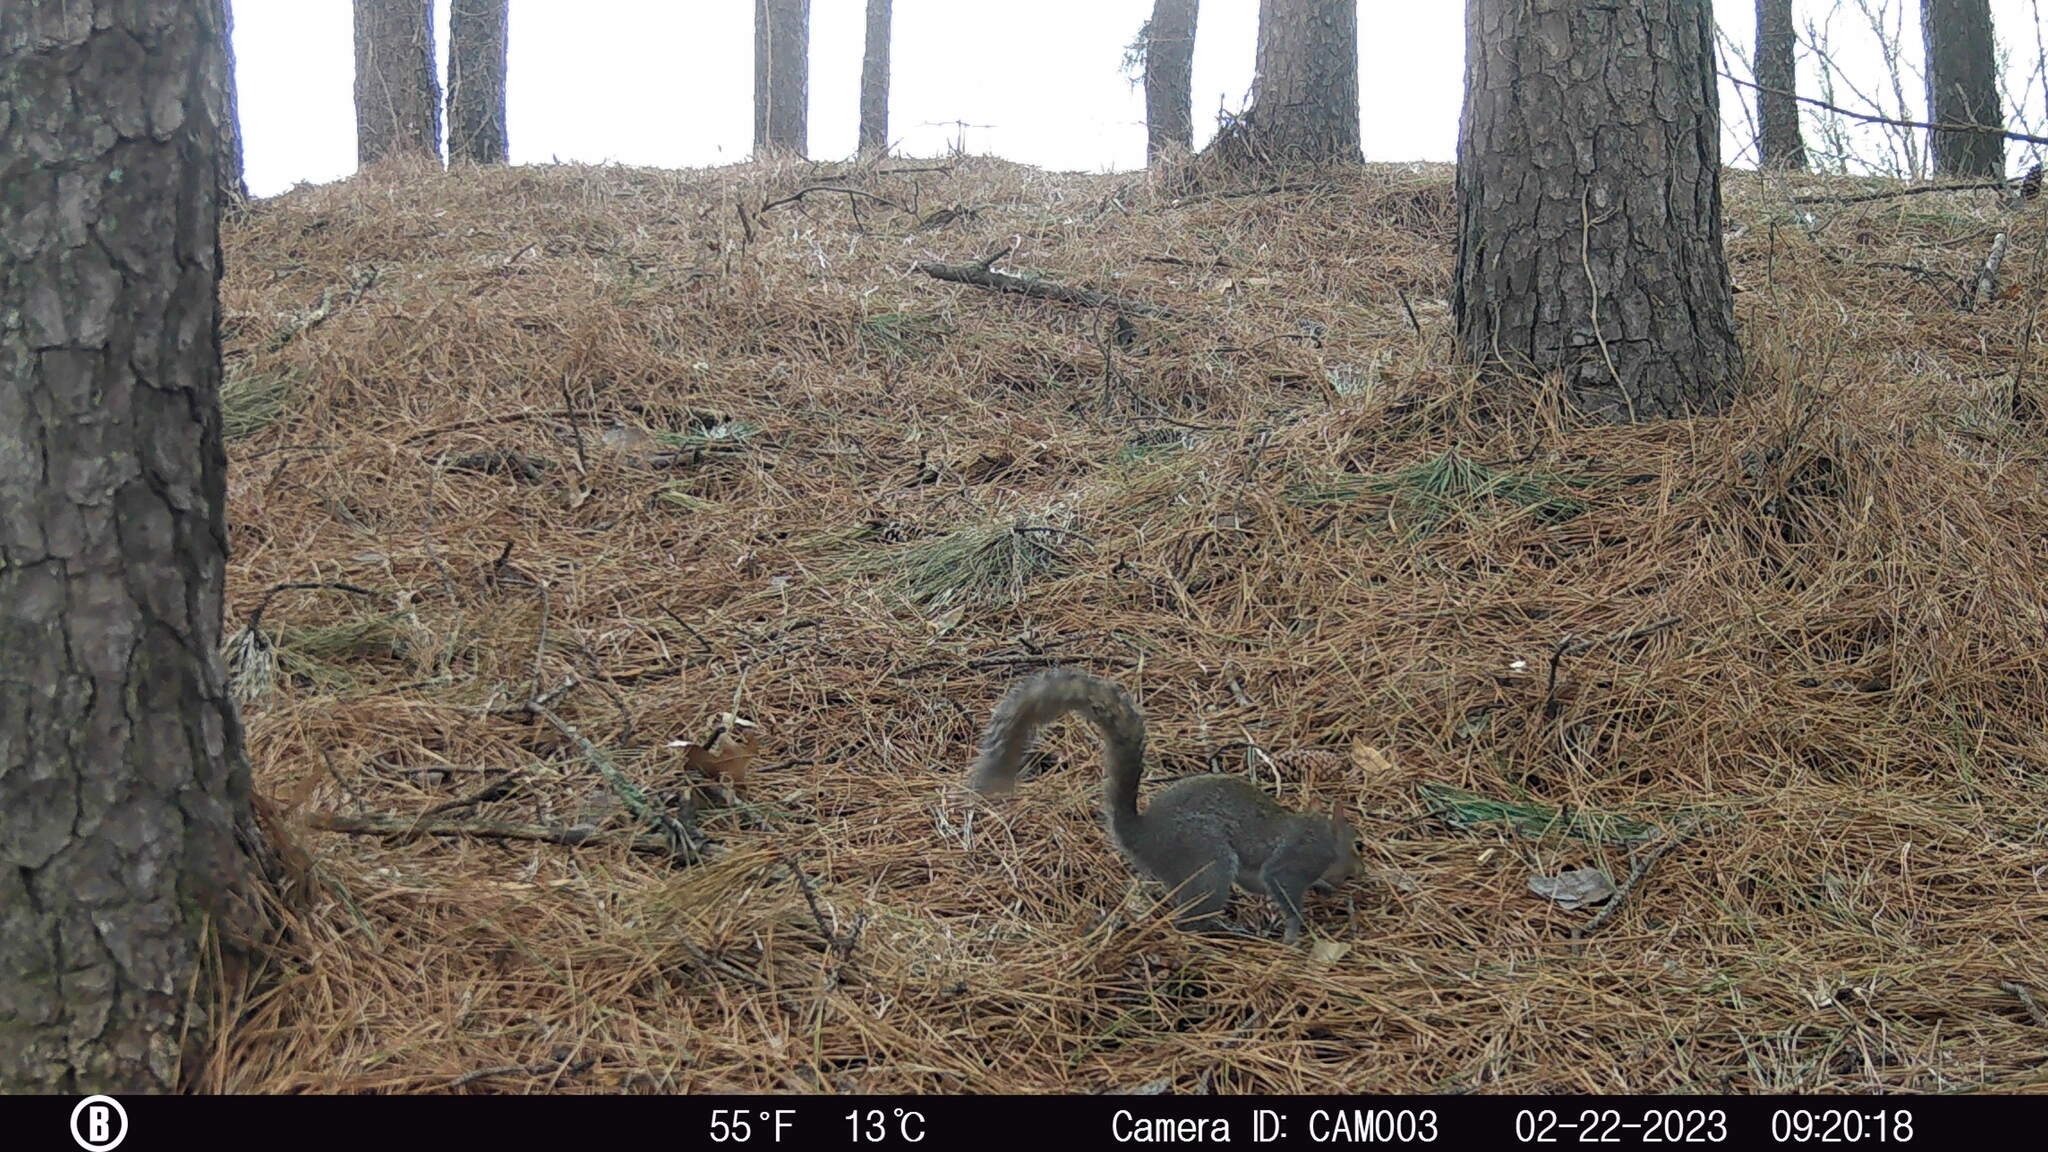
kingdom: Animalia
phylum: Chordata
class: Mammalia
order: Rodentia
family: Sciuridae
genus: Sciurus
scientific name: Sciurus carolinensis
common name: Eastern gray squirrel
